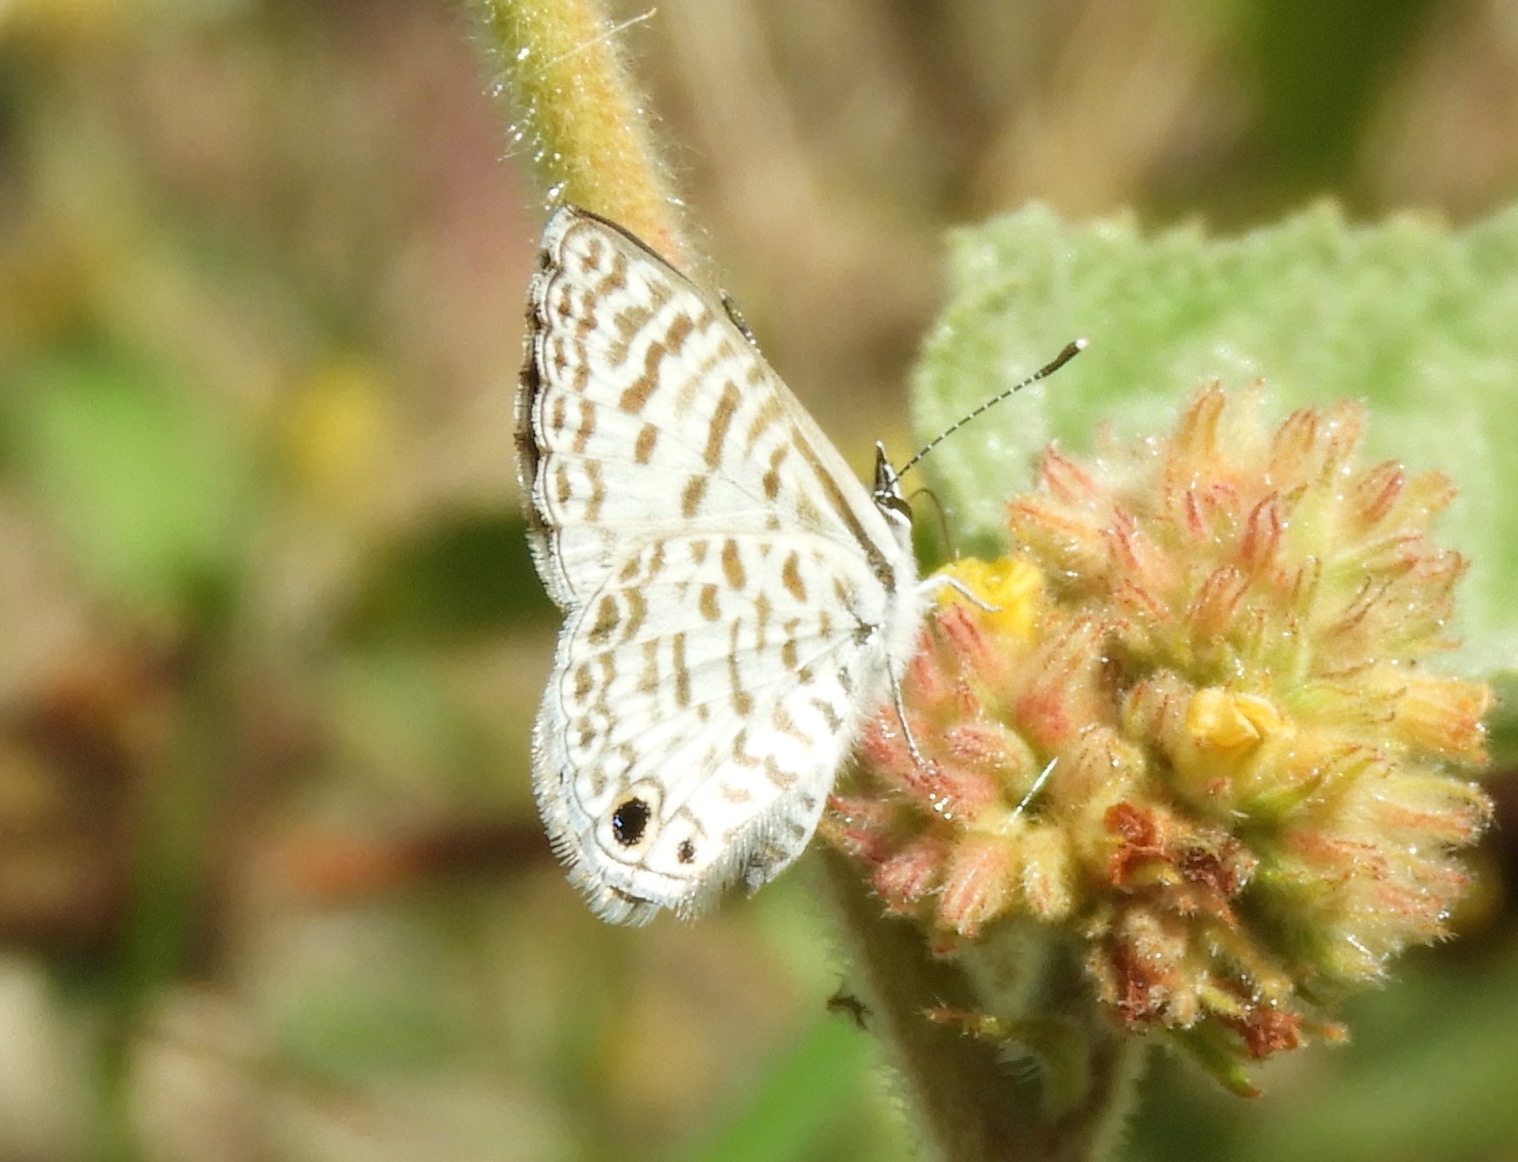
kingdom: Animalia
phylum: Arthropoda
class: Insecta
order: Lepidoptera
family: Lycaenidae
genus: Leptotes
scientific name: Leptotes
